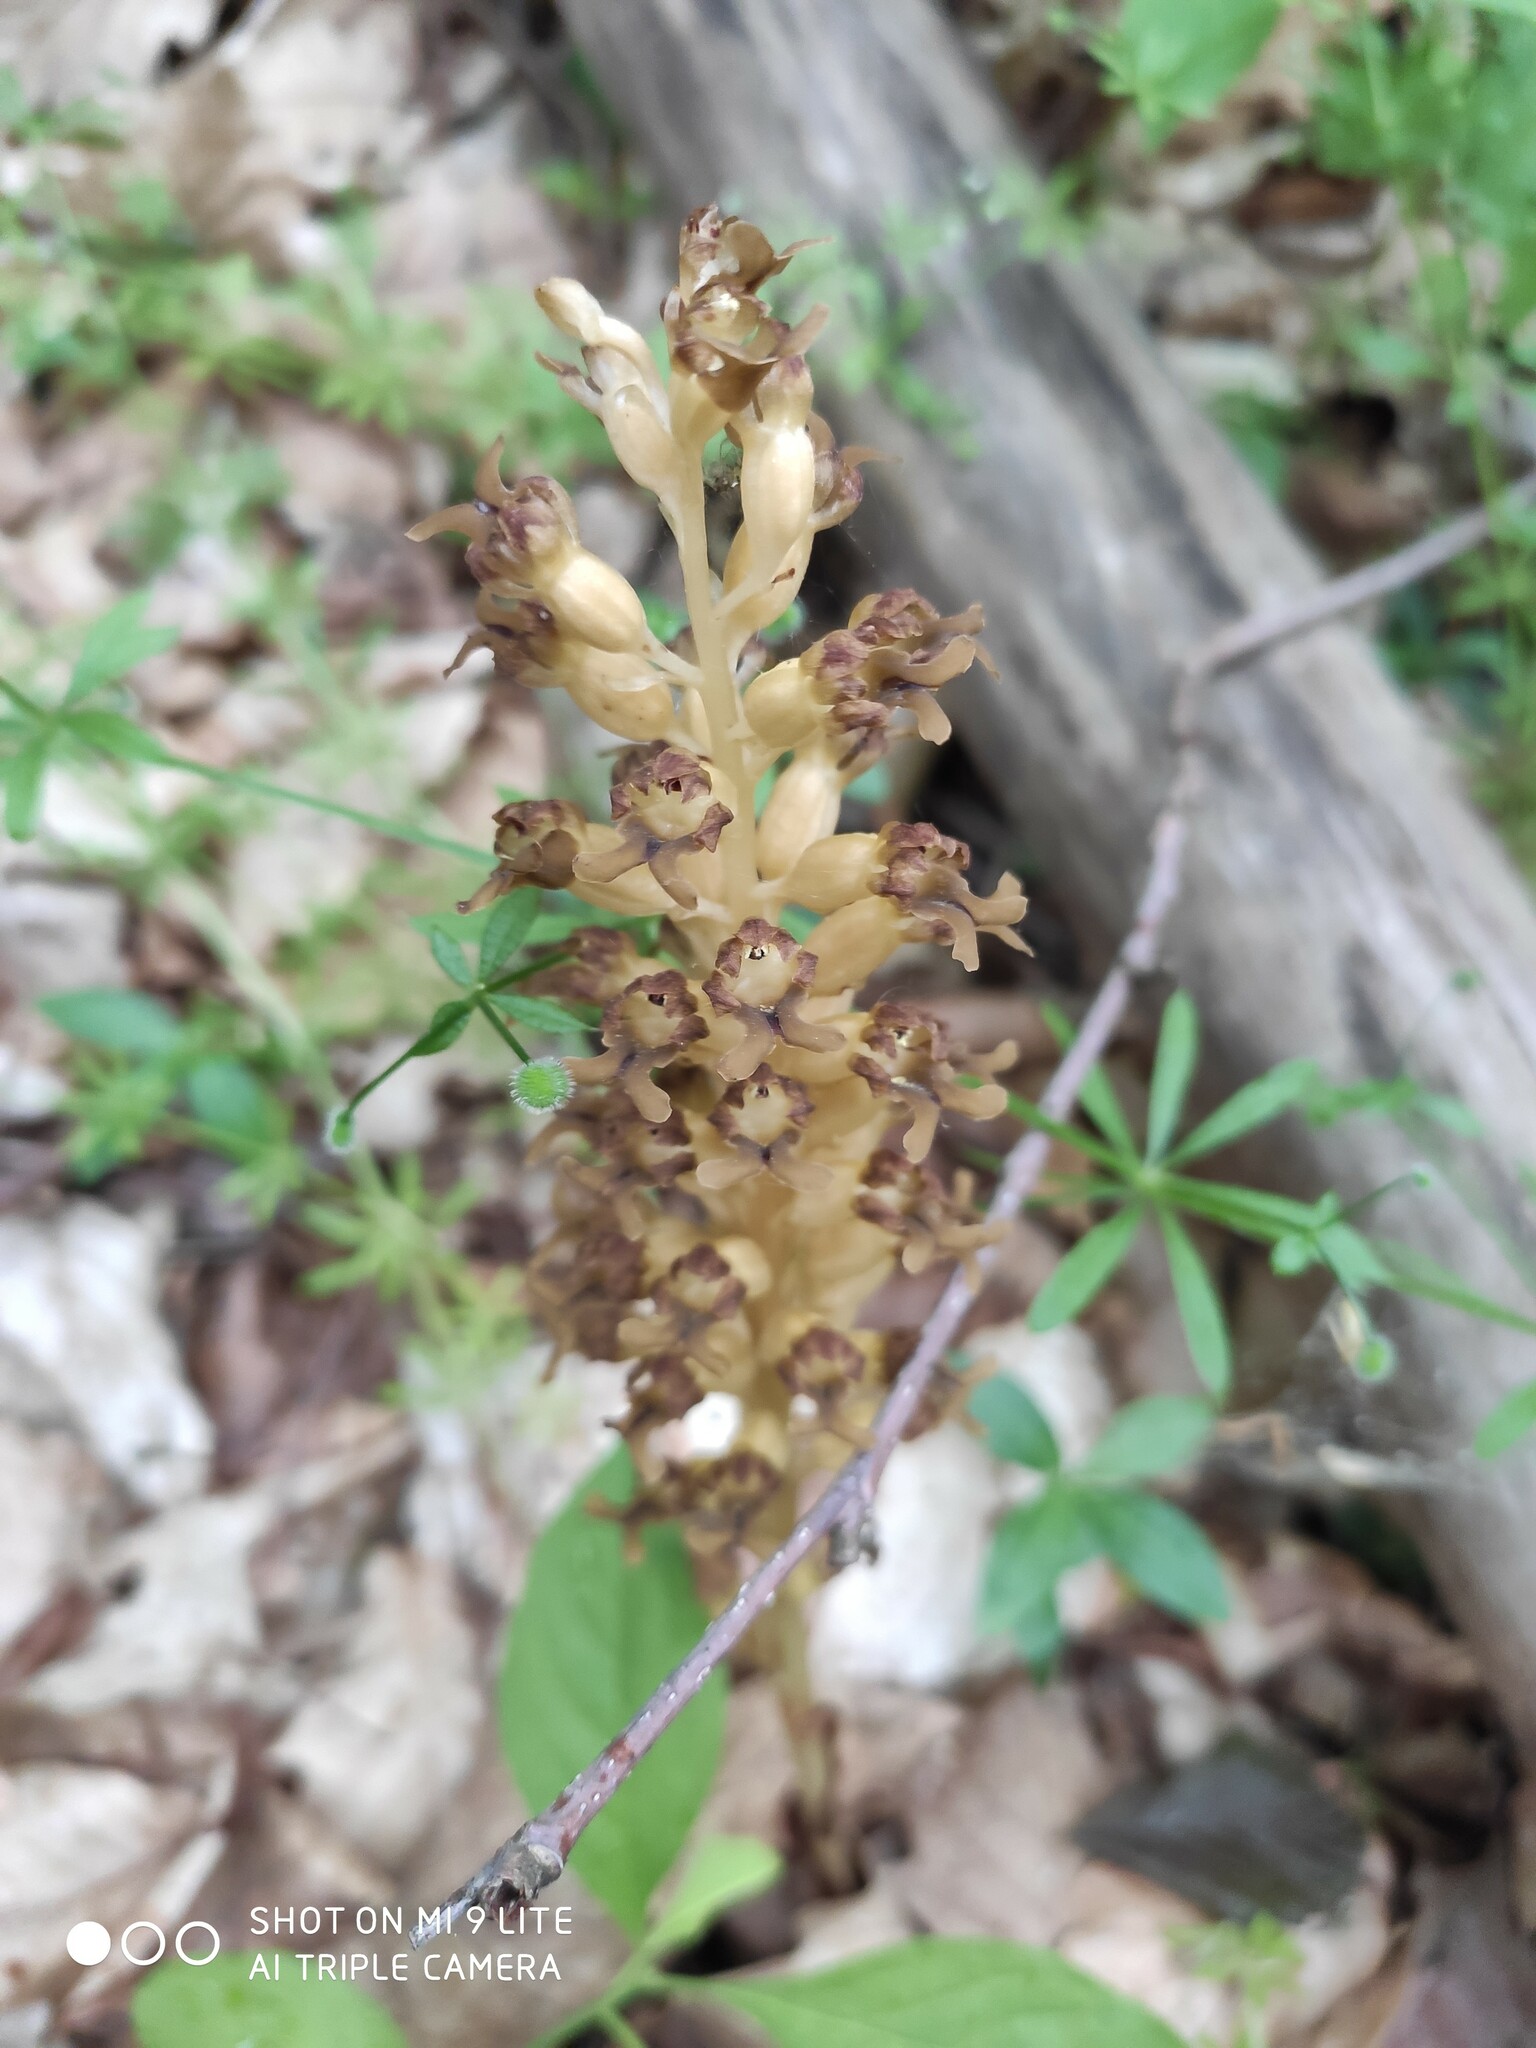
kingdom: Plantae
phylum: Tracheophyta
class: Liliopsida
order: Asparagales
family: Orchidaceae
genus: Neottia
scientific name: Neottia nidus-avis
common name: Bird's-nest orchid
